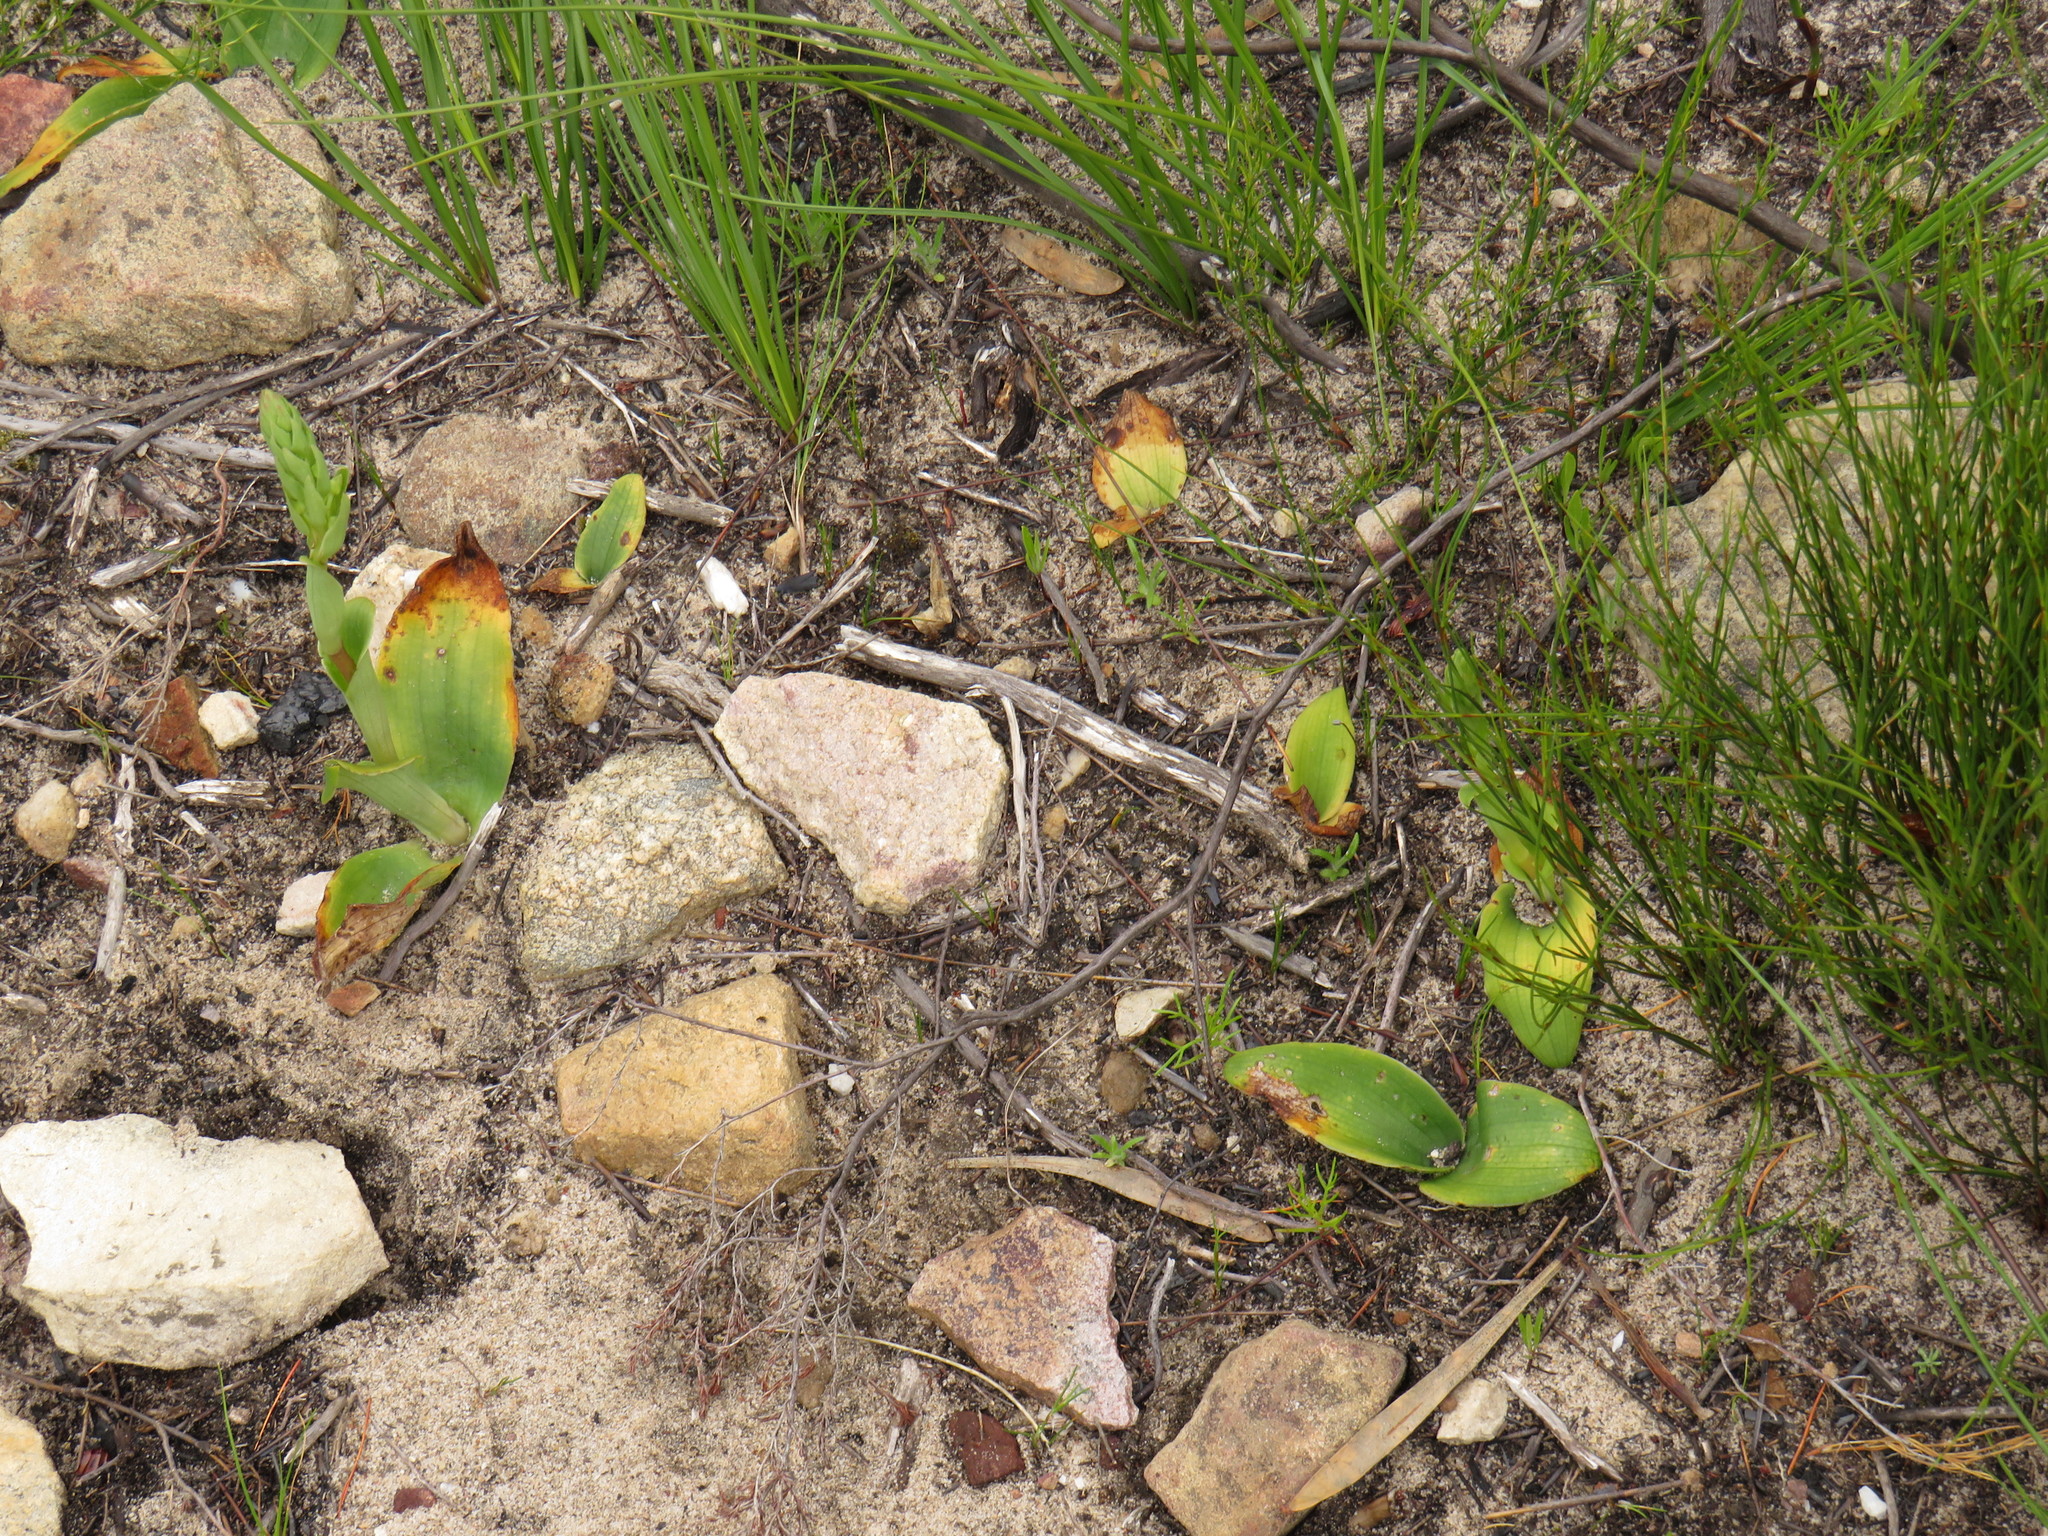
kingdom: Plantae
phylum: Tracheophyta
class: Liliopsida
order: Asparagales
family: Orchidaceae
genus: Satyrium
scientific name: Satyrium humile
